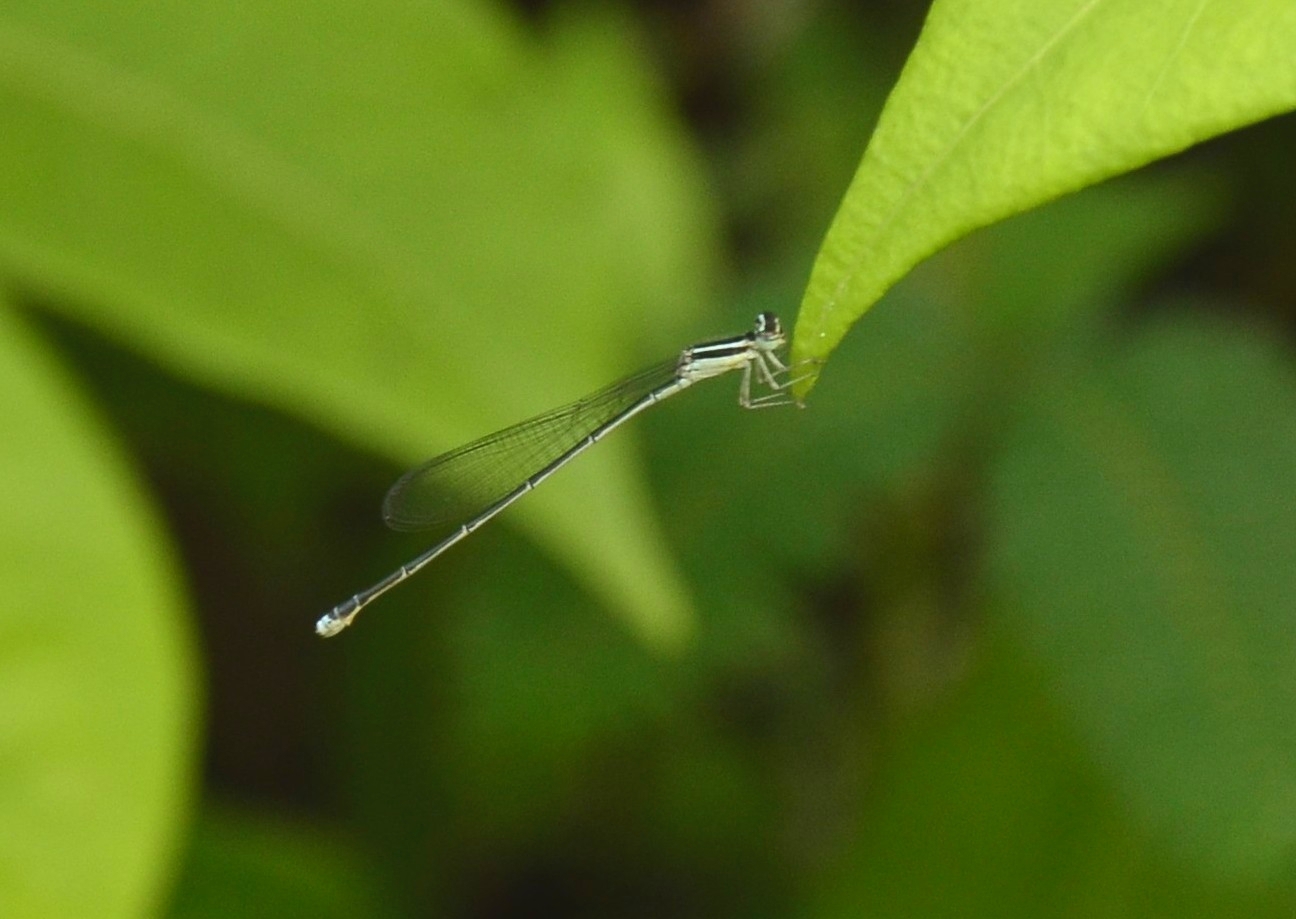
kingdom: Animalia
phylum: Arthropoda
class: Insecta
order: Odonata
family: Coenagrionidae
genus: Aciagrion
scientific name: Aciagrion occidentale
